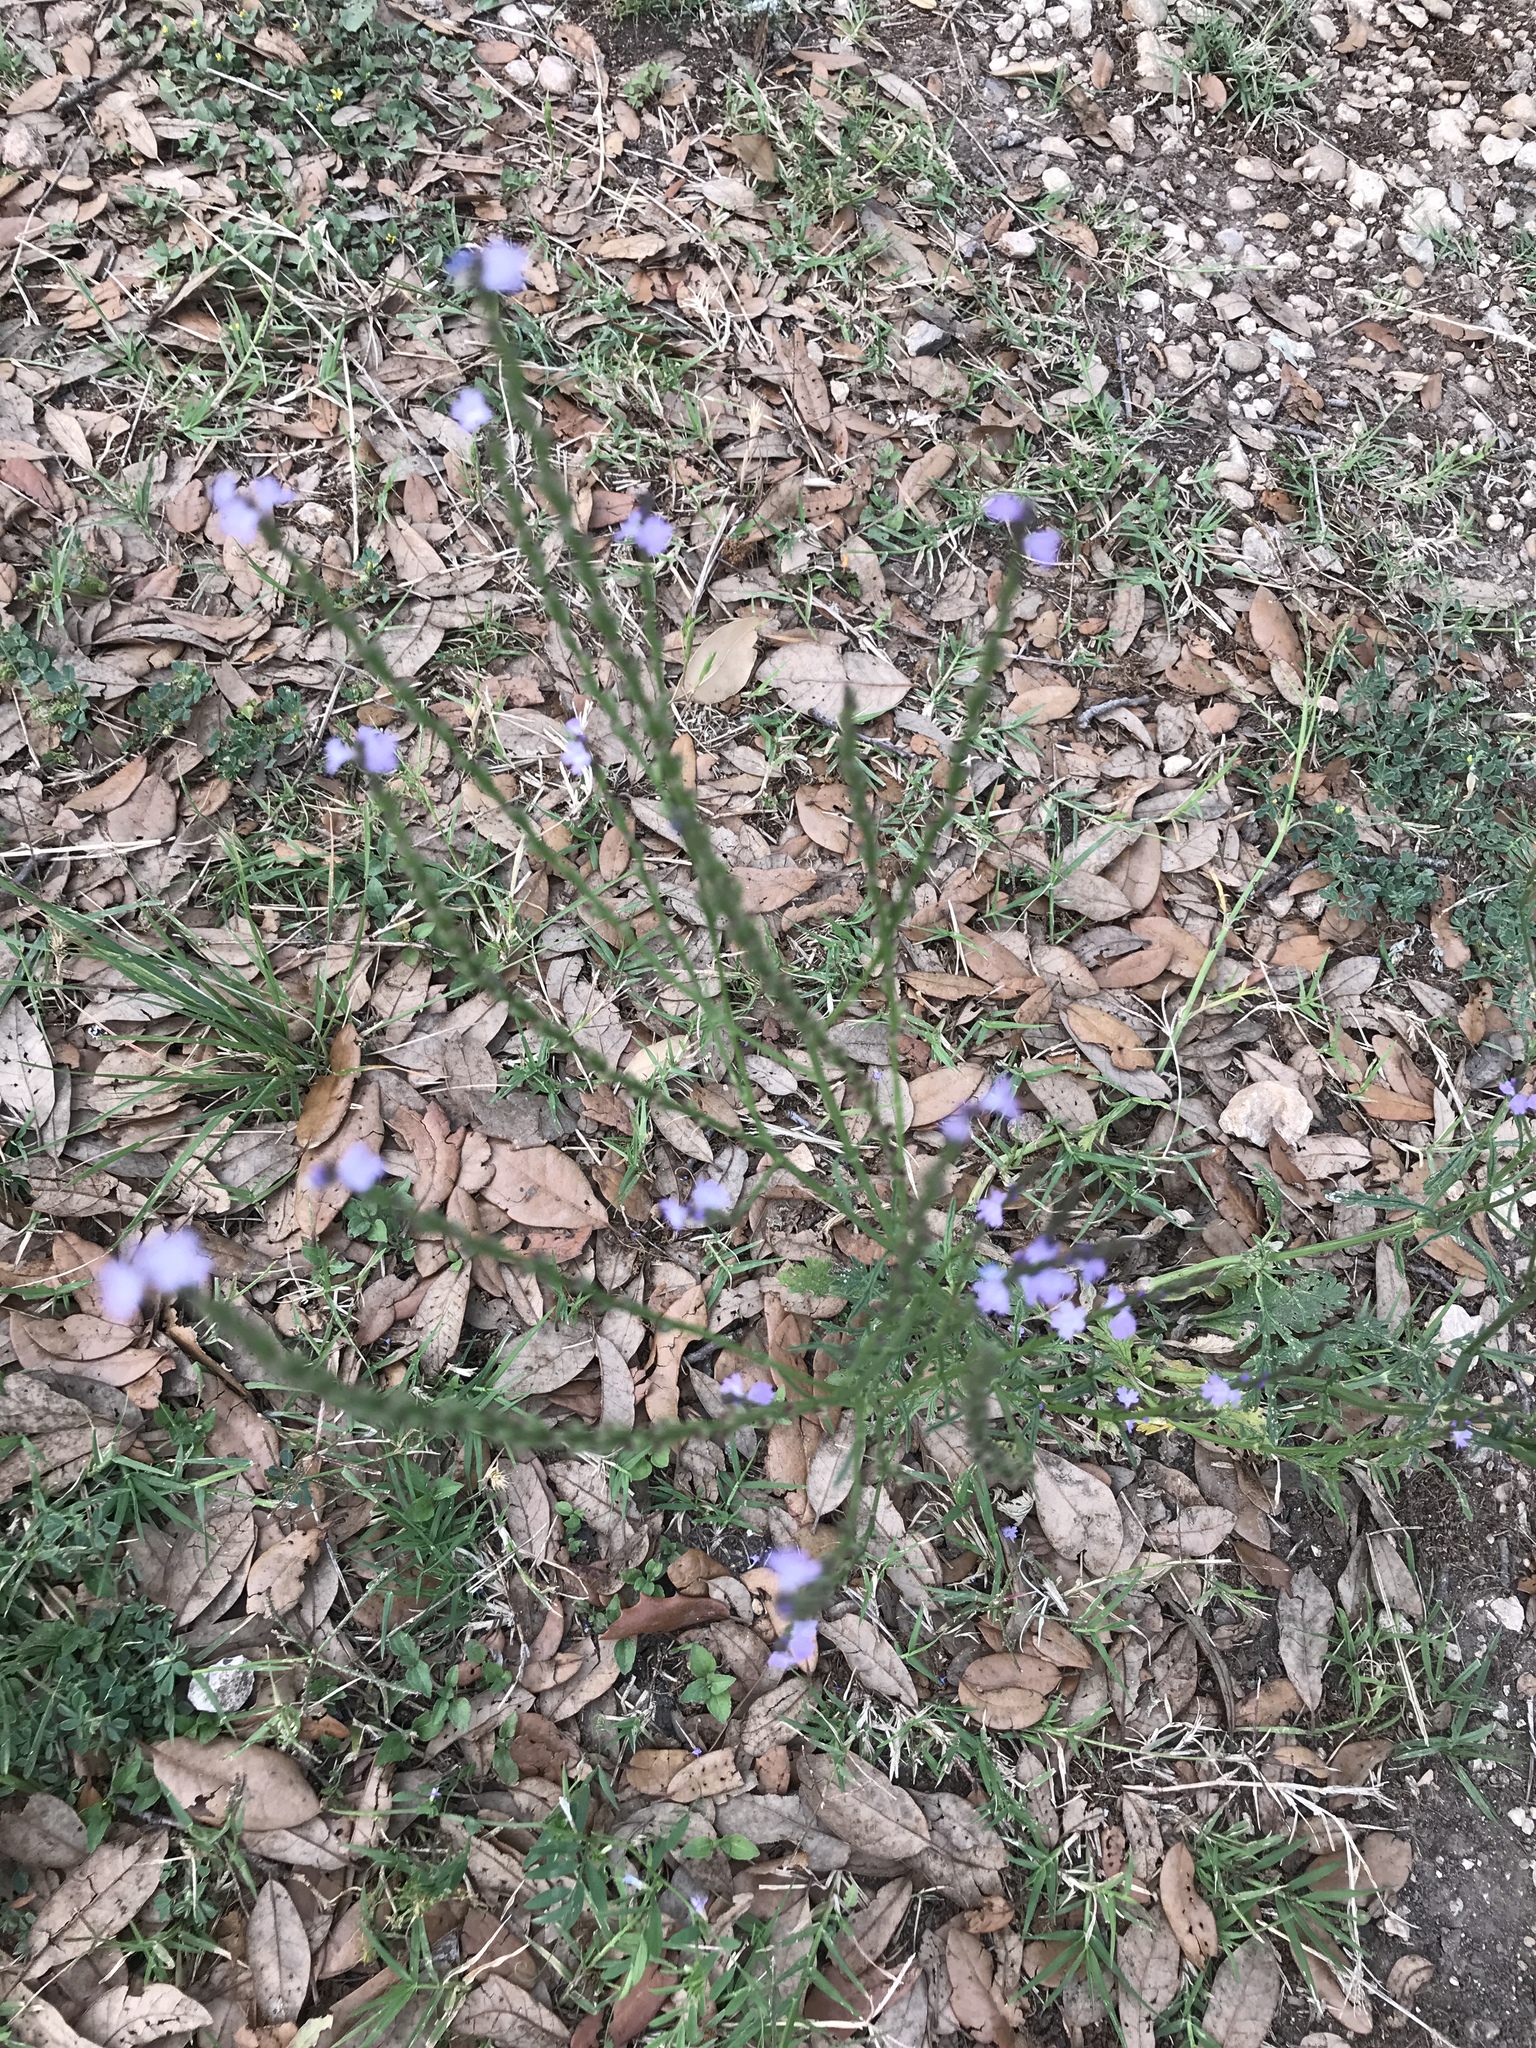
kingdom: Plantae
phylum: Tracheophyta
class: Magnoliopsida
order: Lamiales
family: Verbenaceae
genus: Verbena
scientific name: Verbena halei
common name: Texas vervain
